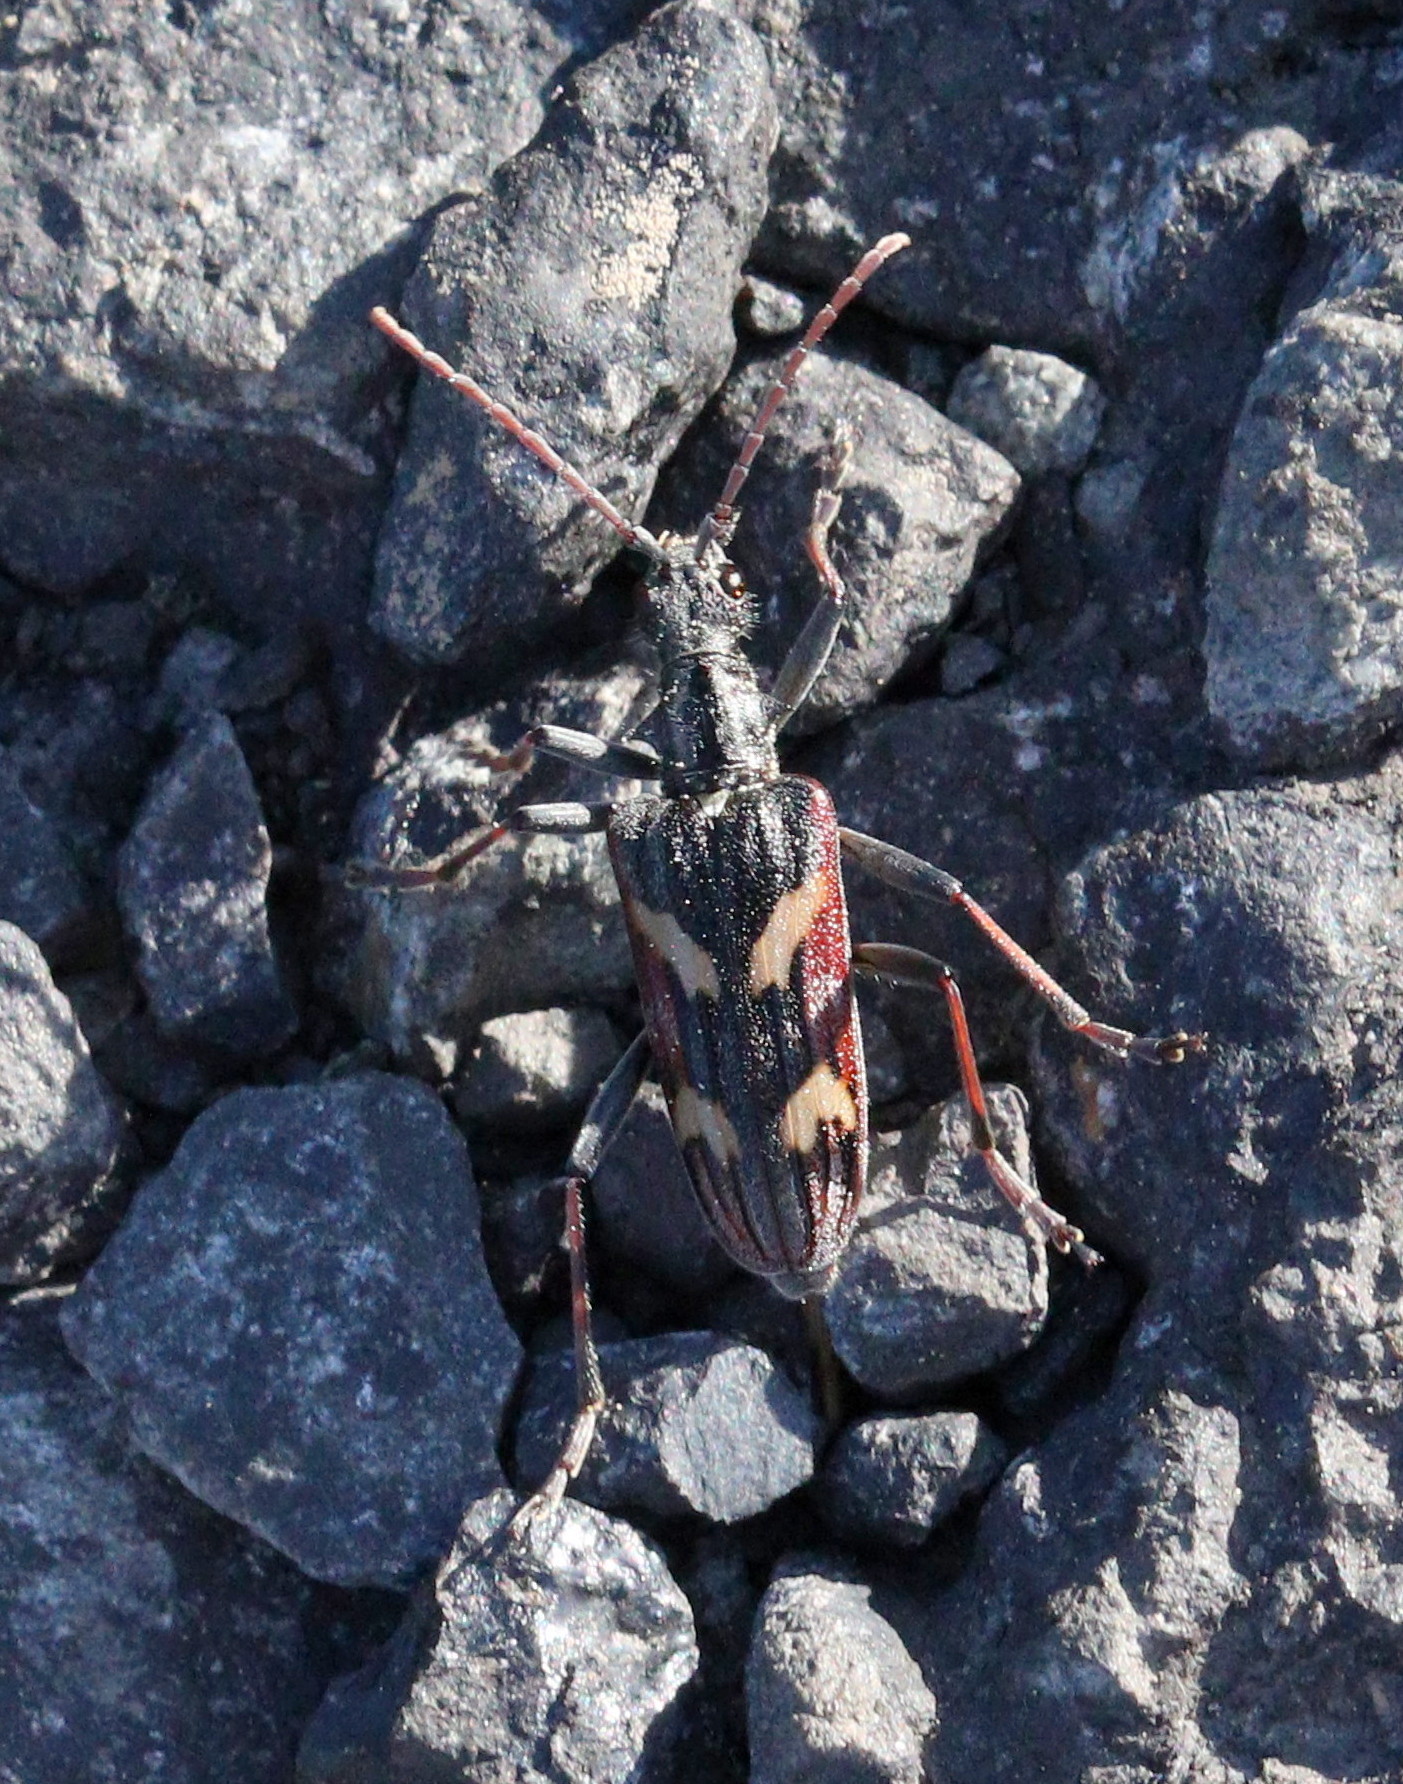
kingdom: Animalia
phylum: Arthropoda
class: Insecta
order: Coleoptera
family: Cerambycidae
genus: Rhagium
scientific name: Rhagium bifasciatum
